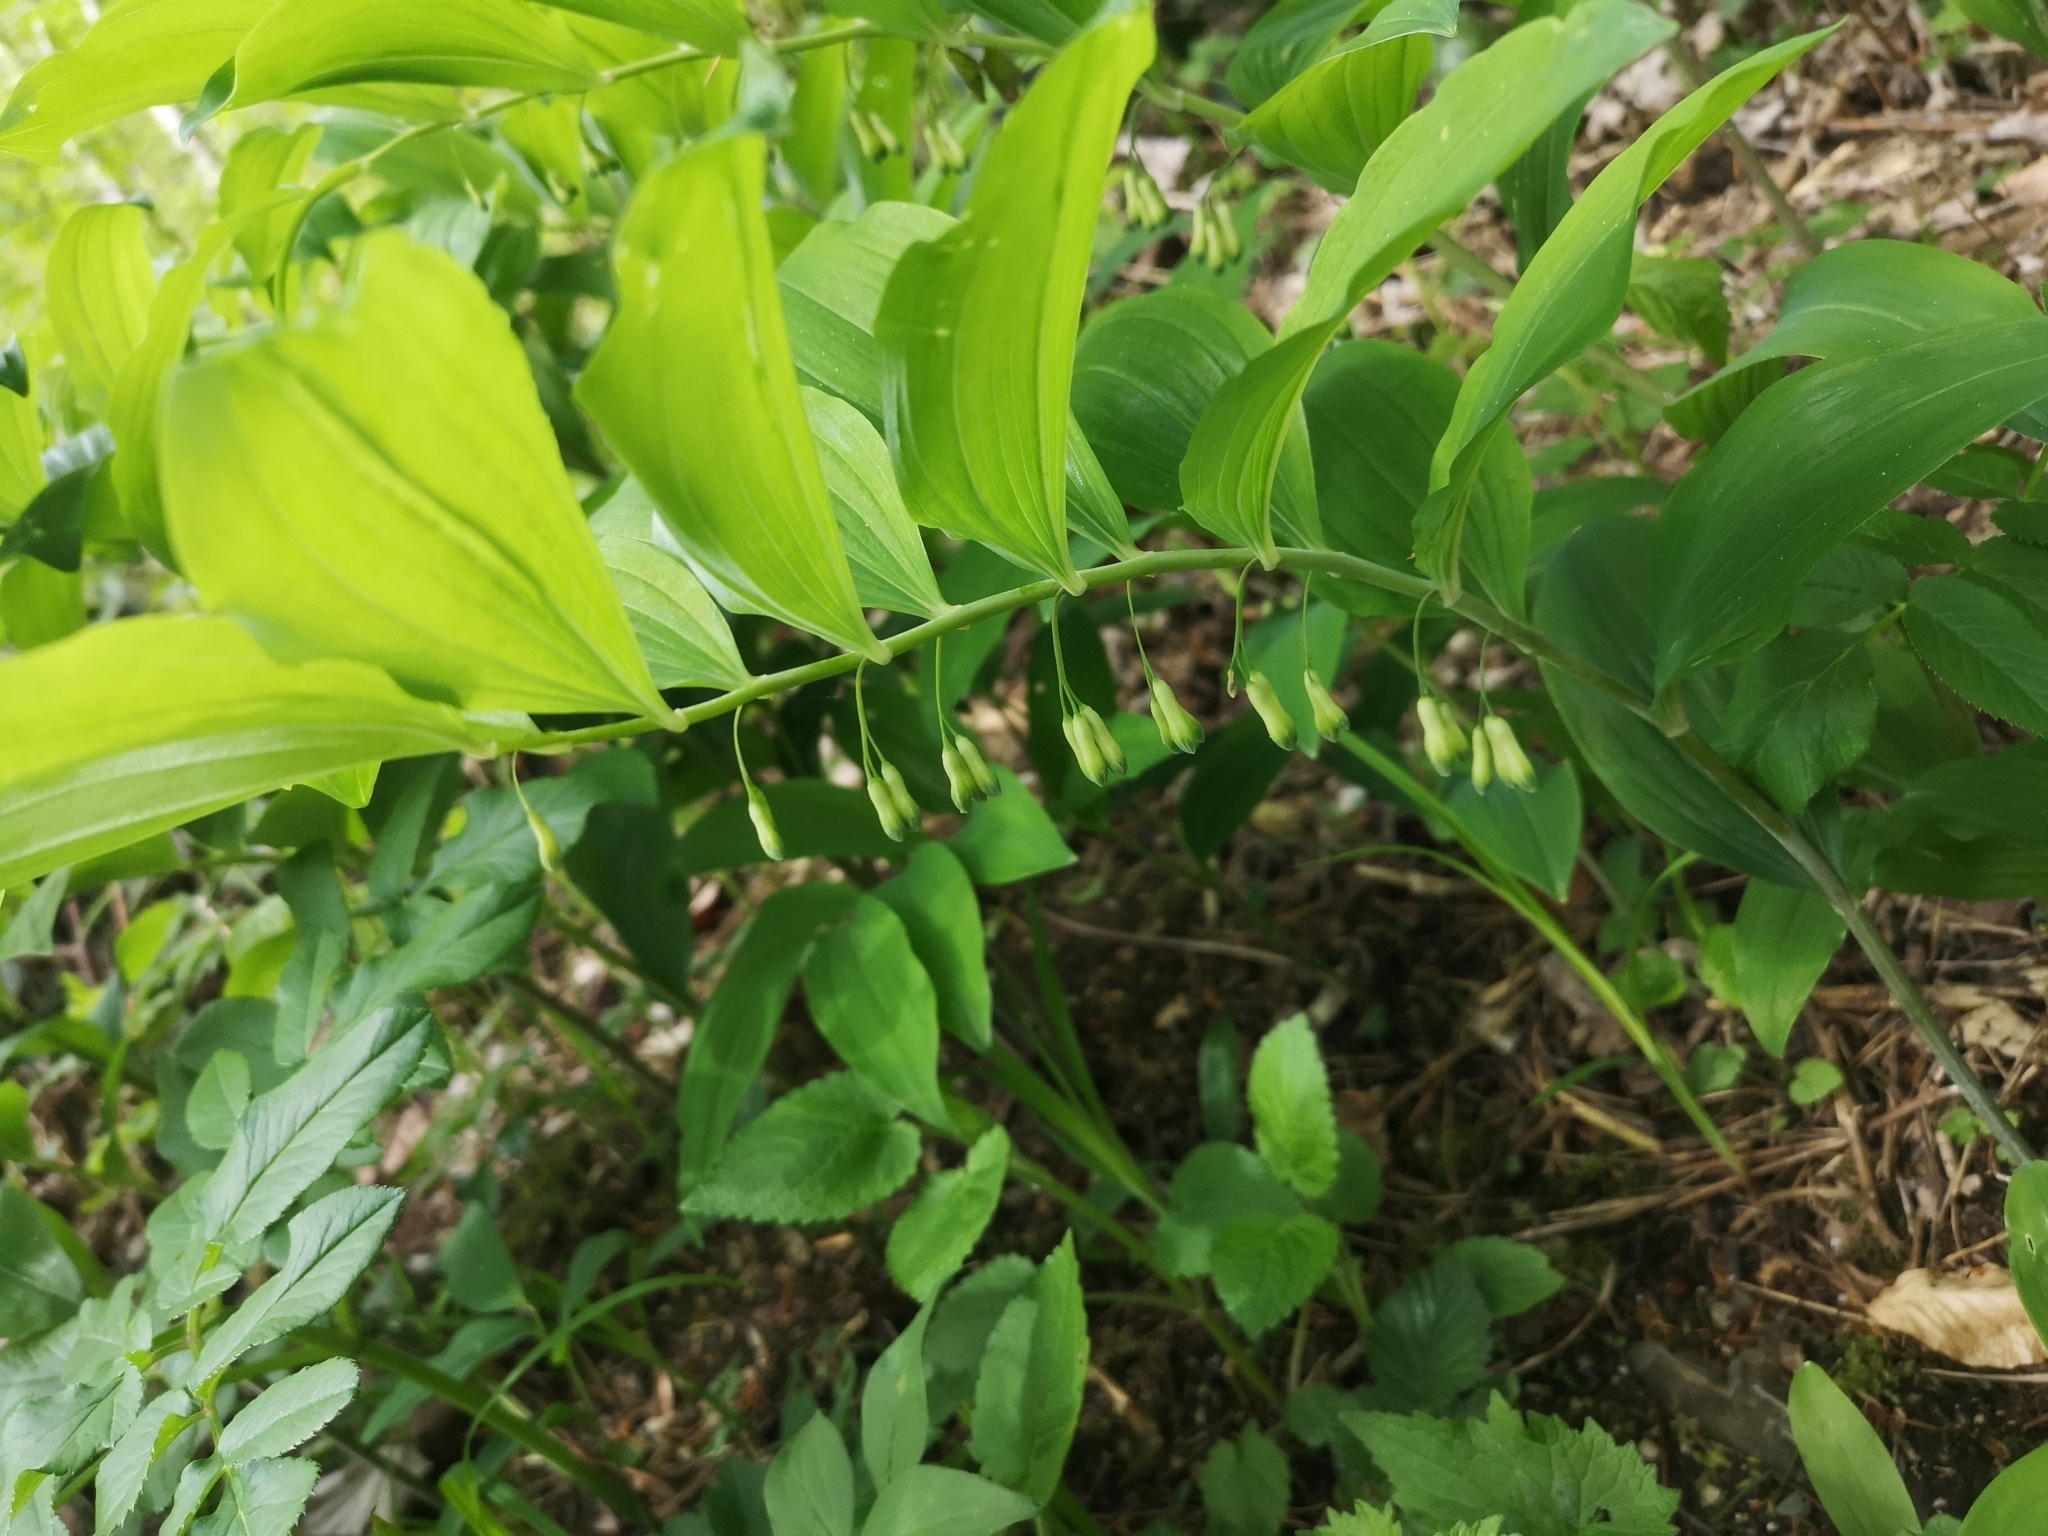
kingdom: Plantae
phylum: Tracheophyta
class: Liliopsida
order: Asparagales
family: Asparagaceae
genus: Polygonatum
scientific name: Polygonatum multiflorum
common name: Solomon's-seal
